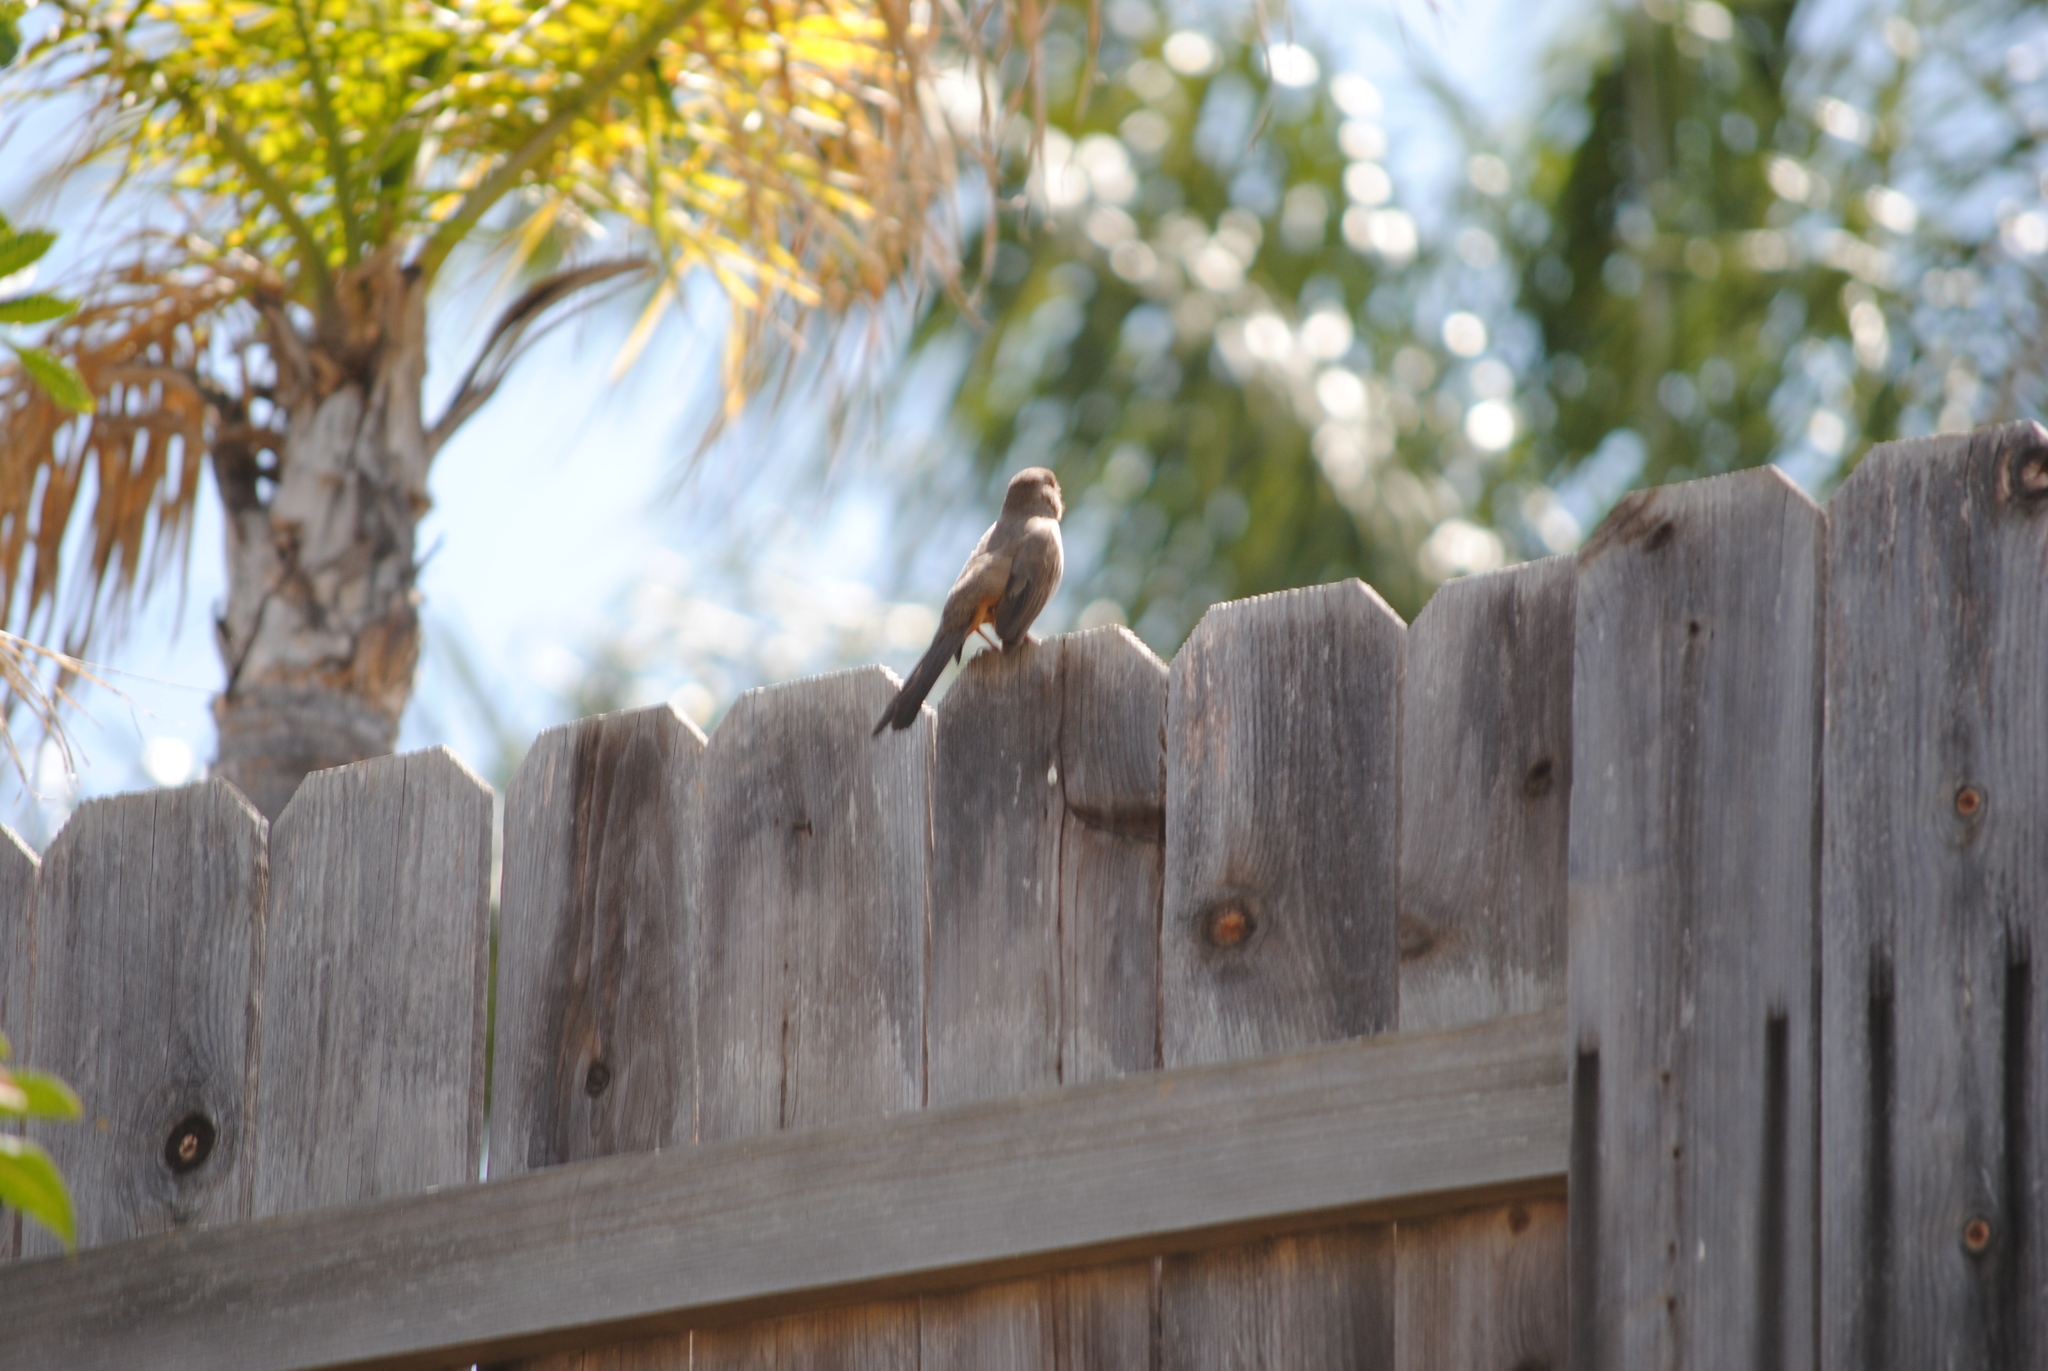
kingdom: Animalia
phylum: Chordata
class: Aves
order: Passeriformes
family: Passerellidae
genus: Melozone
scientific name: Melozone crissalis
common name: California towhee
